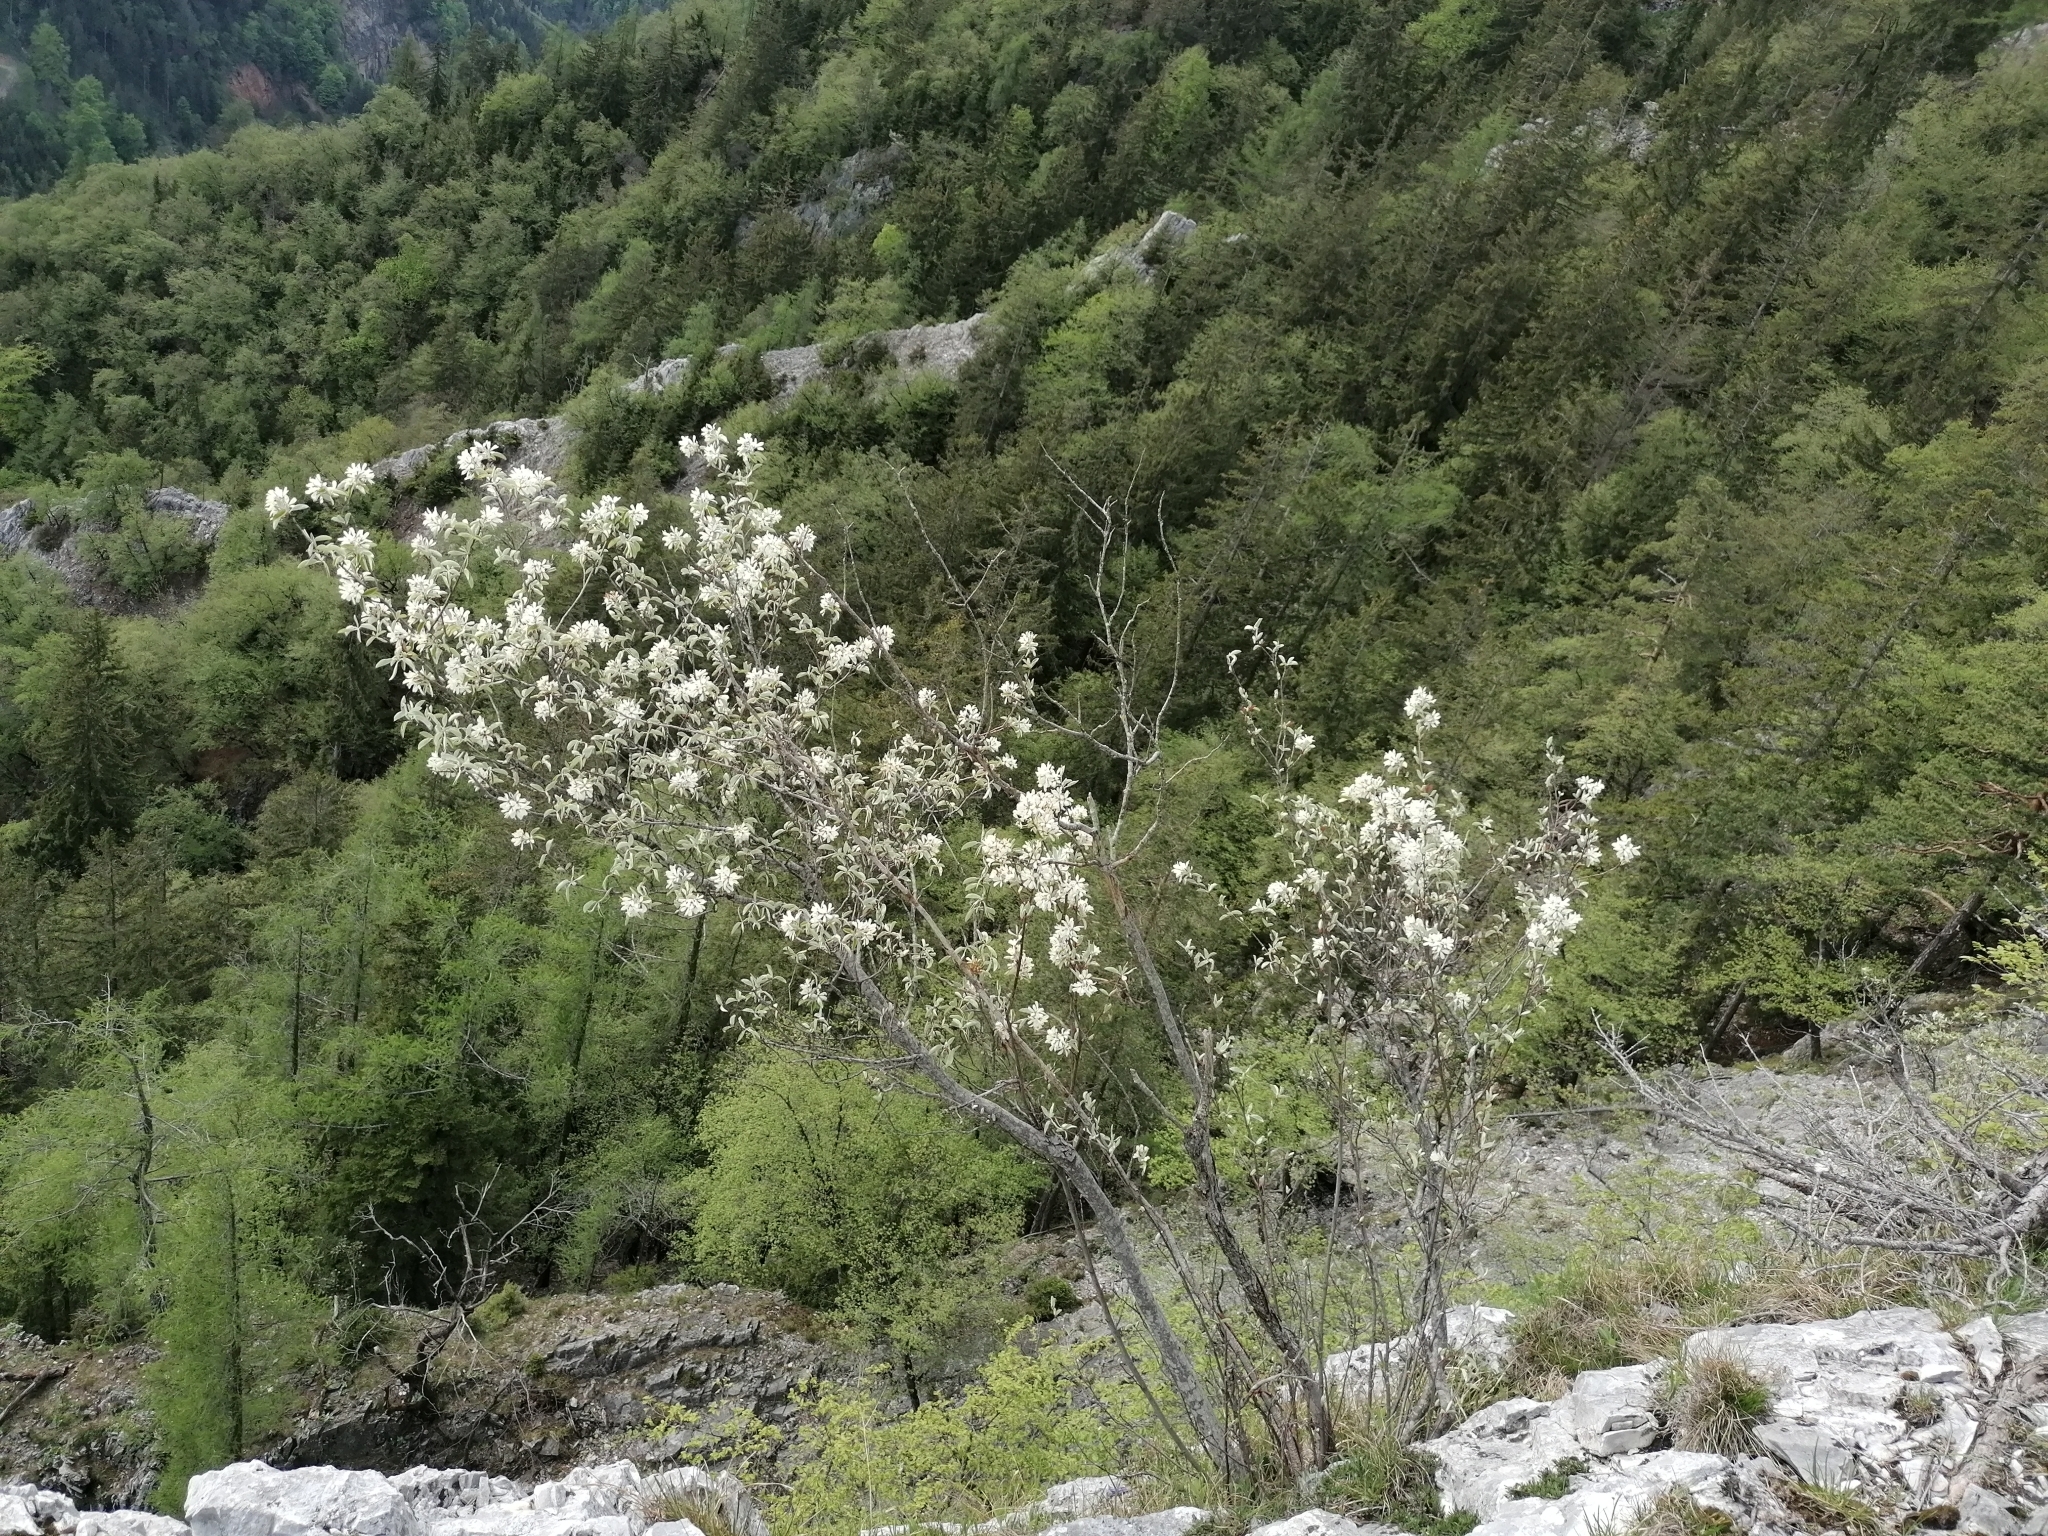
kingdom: Plantae
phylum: Tracheophyta
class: Magnoliopsida
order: Rosales
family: Rosaceae
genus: Amelanchier
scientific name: Amelanchier ovalis
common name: Serviceberry
